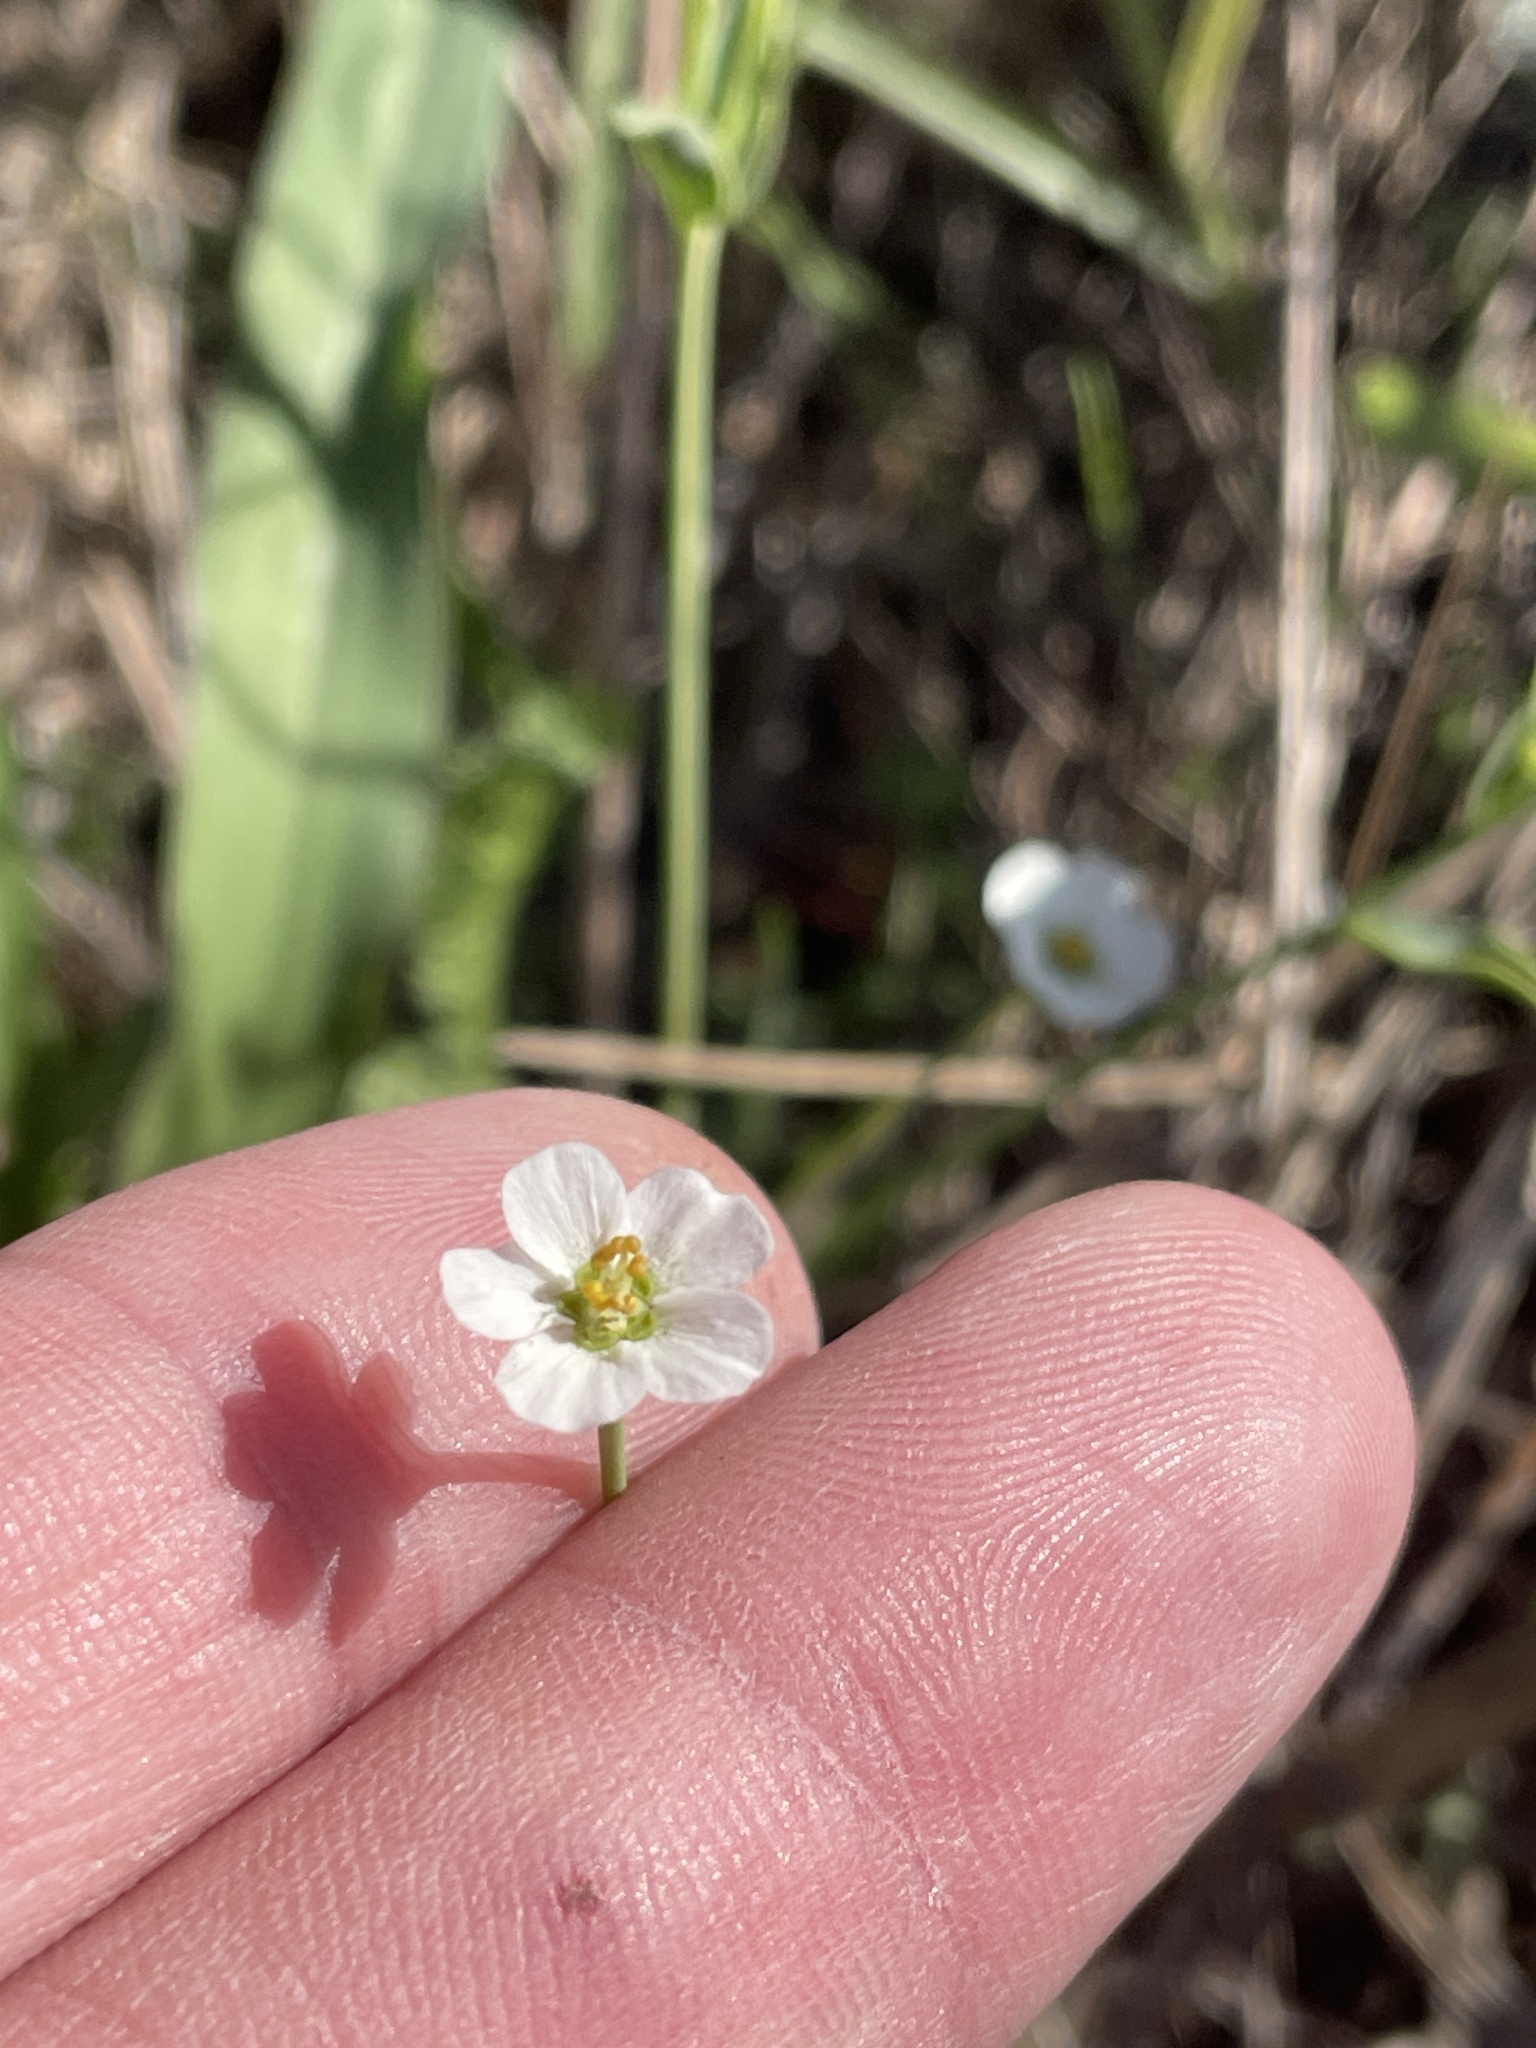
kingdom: Plantae
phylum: Tracheophyta
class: Magnoliopsida
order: Malpighiales
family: Euphorbiaceae
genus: Euphorbia
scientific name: Euphorbia corollata
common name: Flowering spurge
